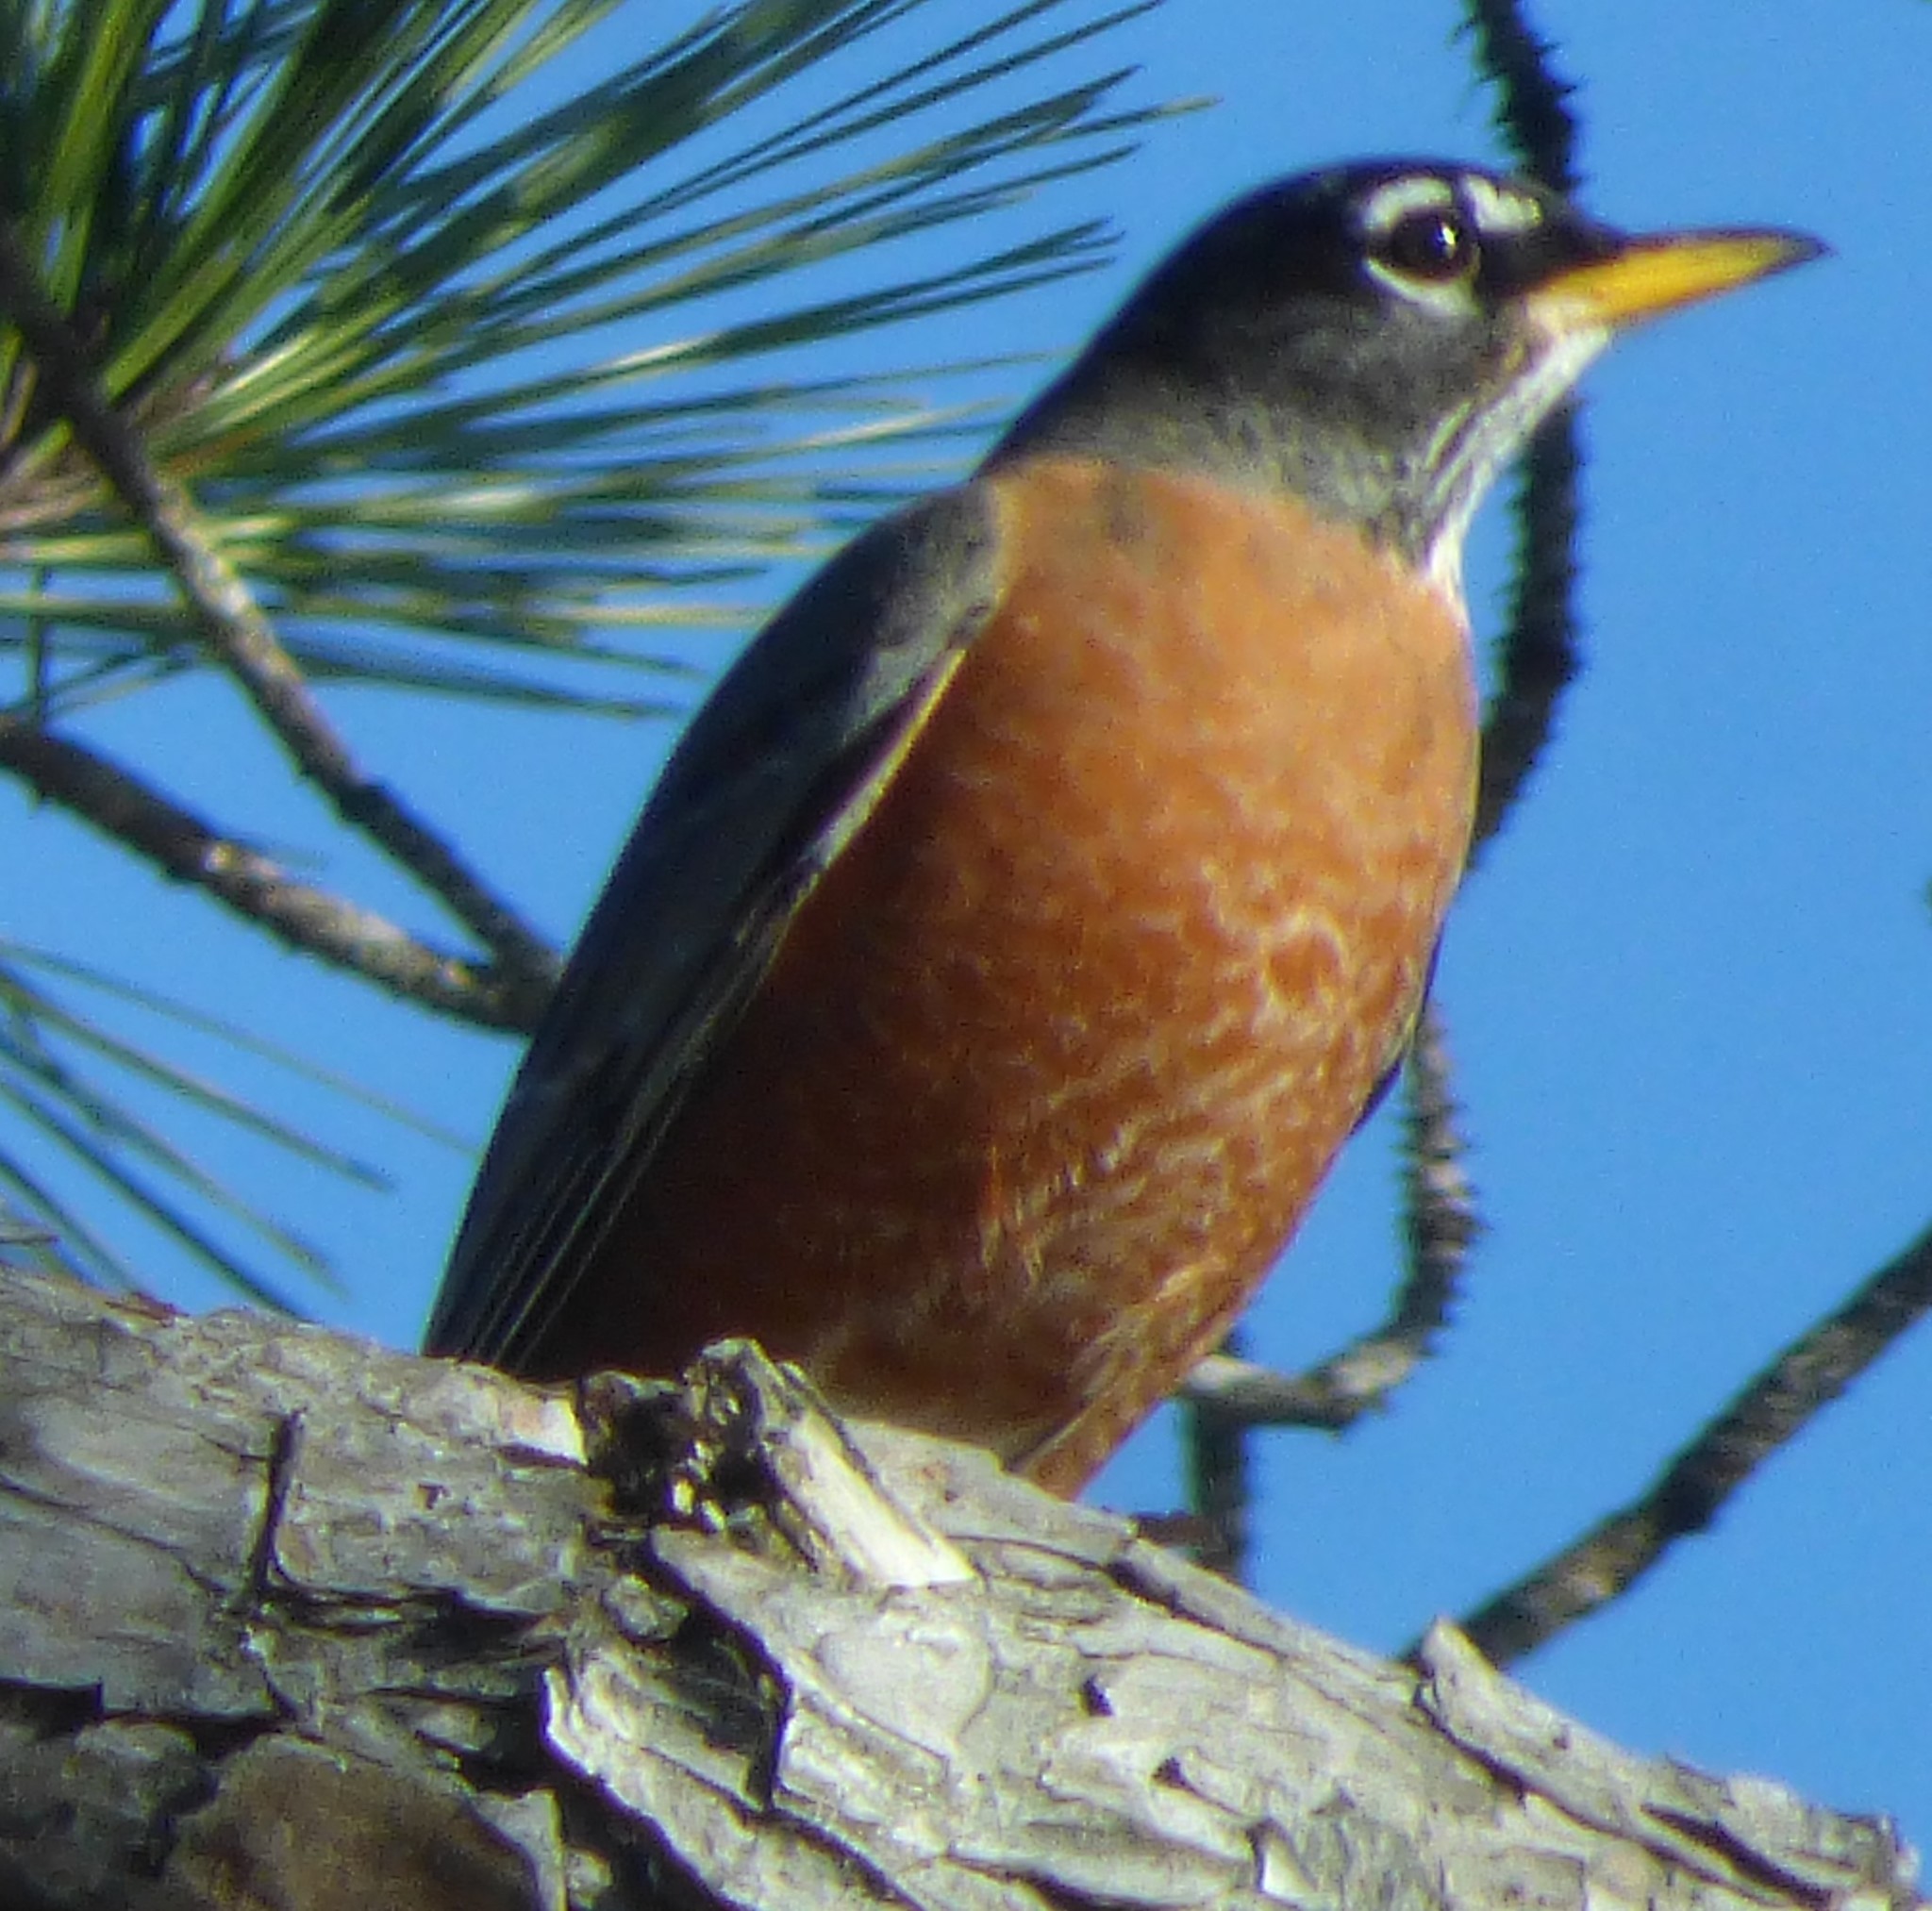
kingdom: Animalia
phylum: Chordata
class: Aves
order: Passeriformes
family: Turdidae
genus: Turdus
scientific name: Turdus migratorius
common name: American robin
